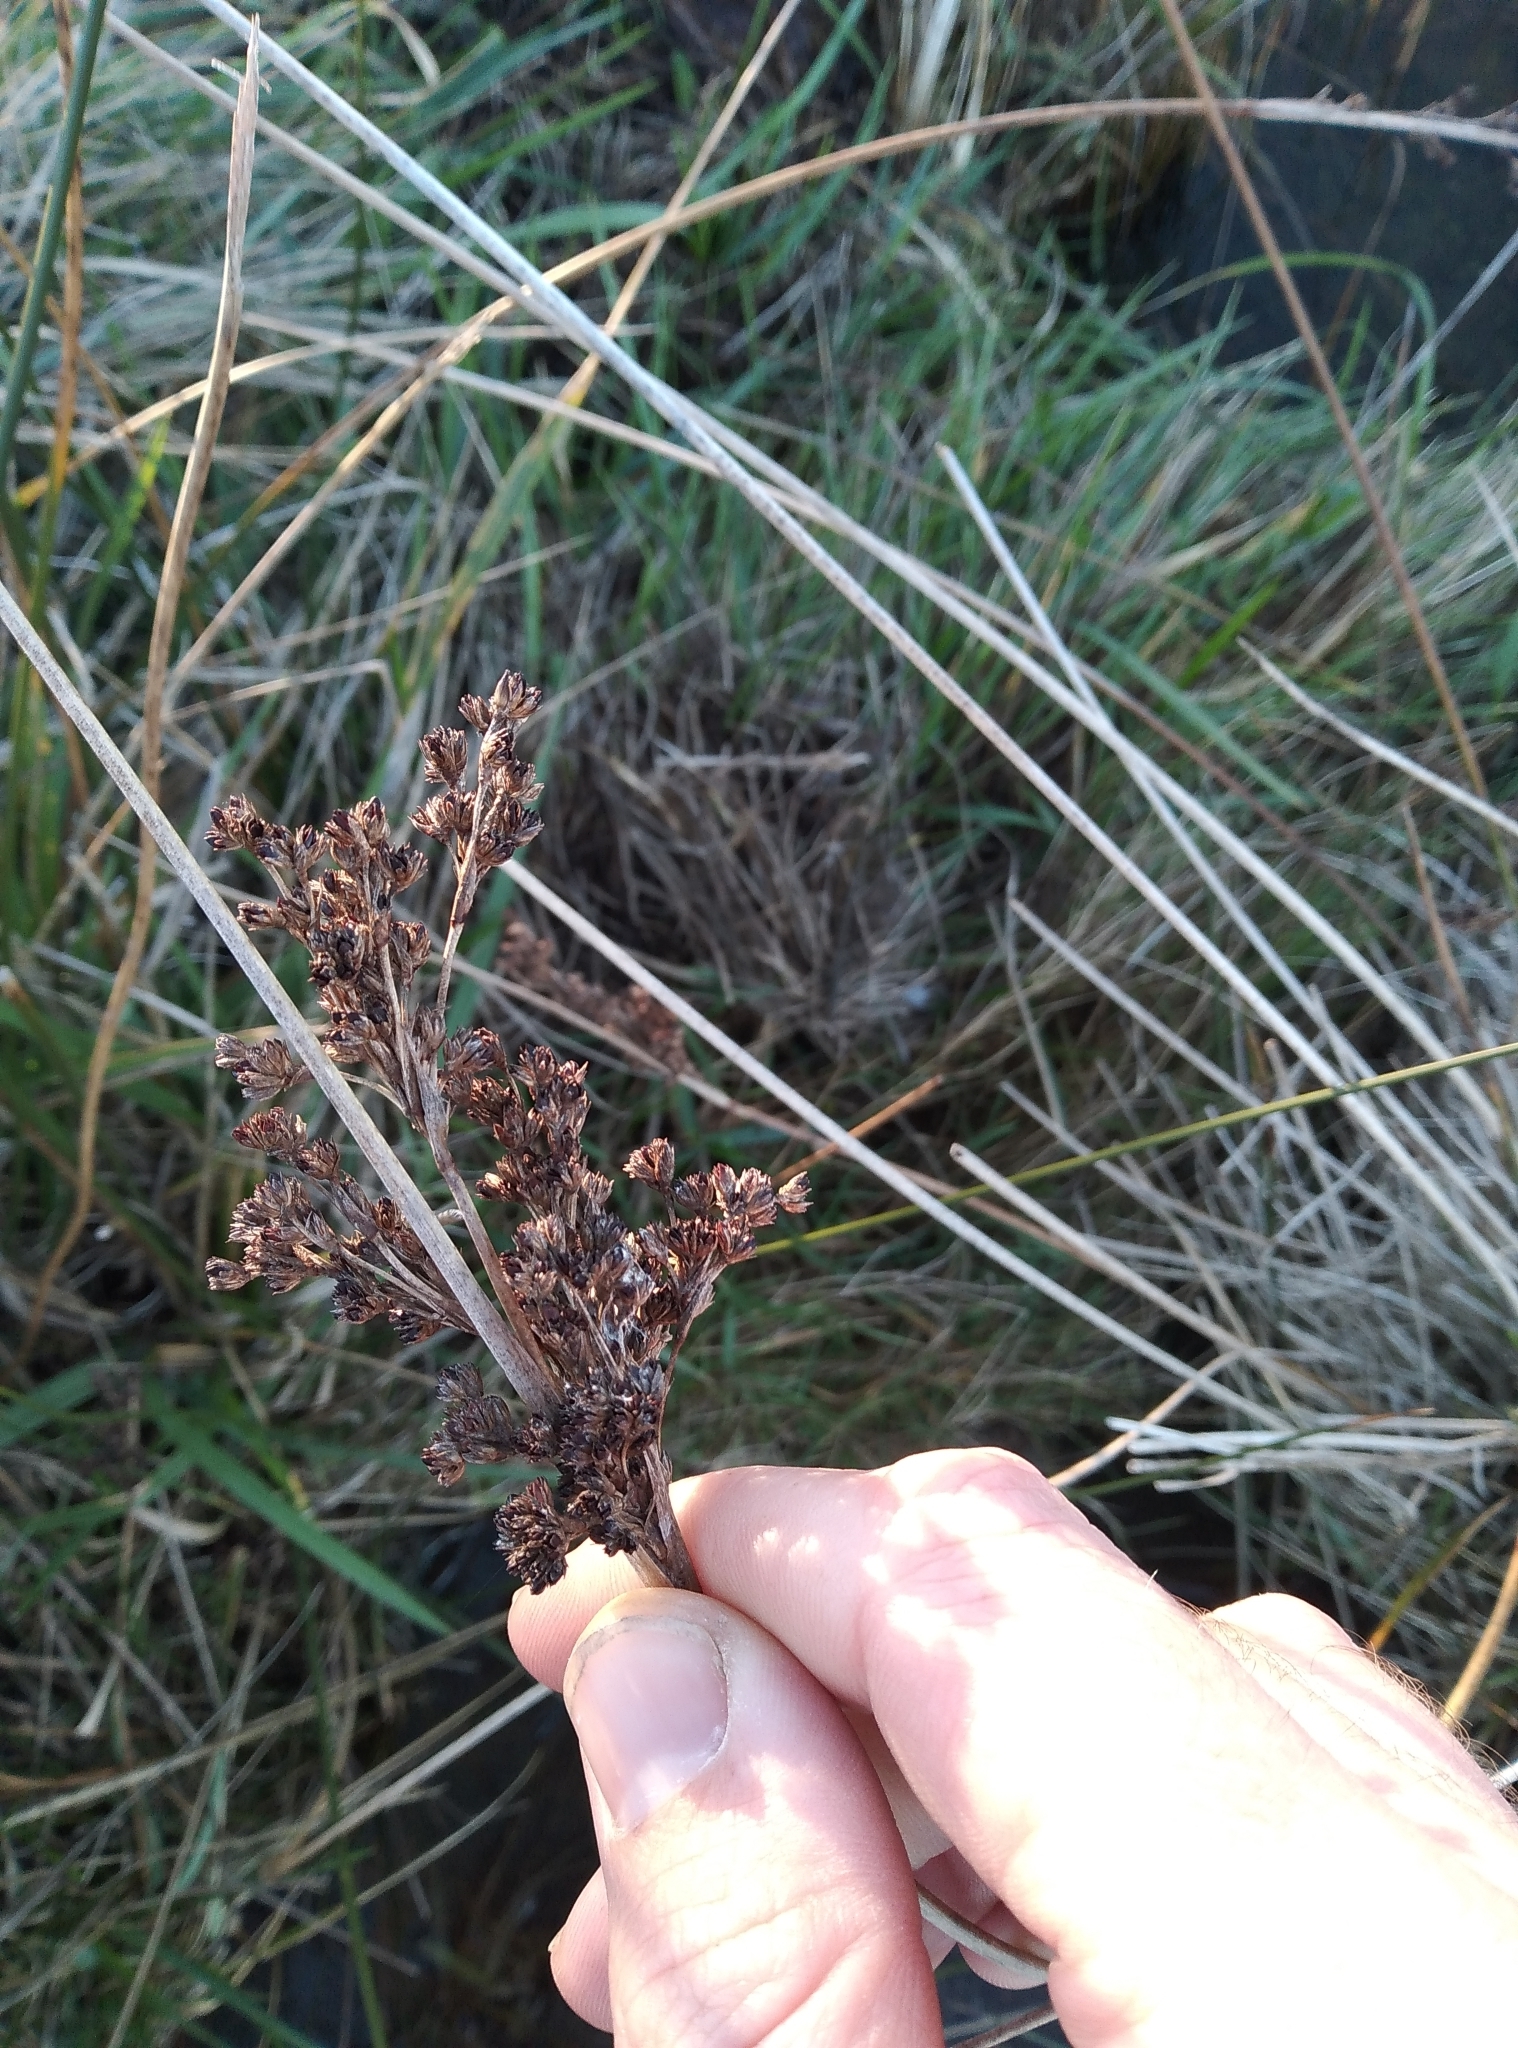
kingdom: Plantae
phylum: Tracheophyta
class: Liliopsida
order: Poales
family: Juncaceae
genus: Juncus
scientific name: Juncus kraussii
